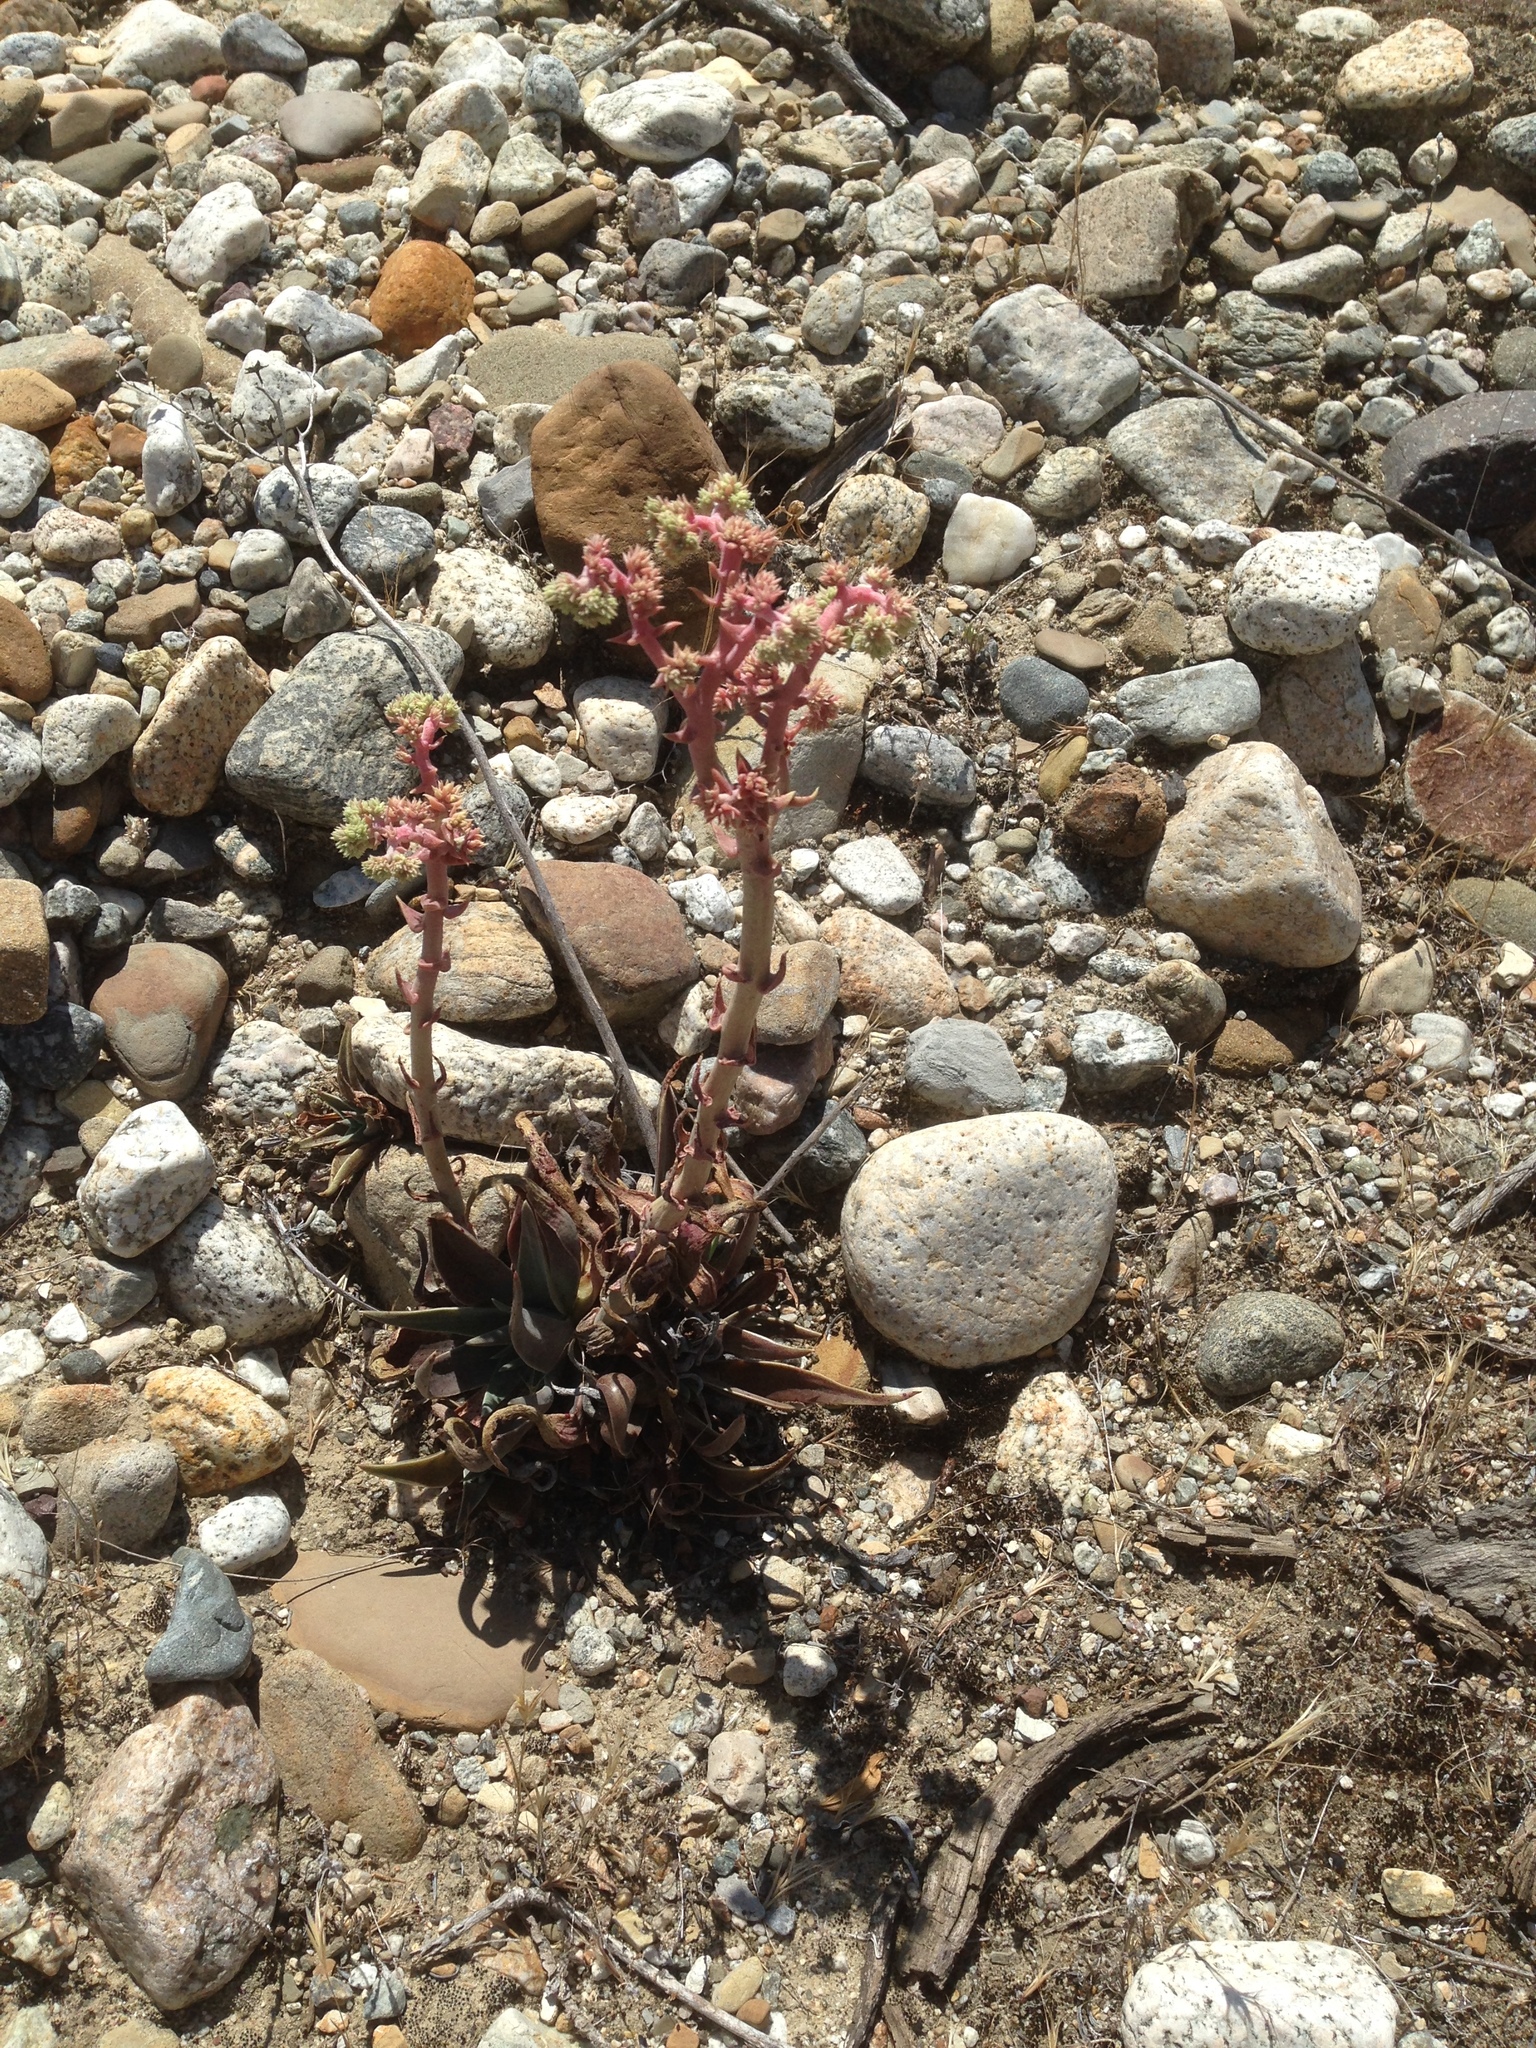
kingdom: Plantae
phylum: Tracheophyta
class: Magnoliopsida
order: Saxifragales
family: Crassulaceae
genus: Dudleya
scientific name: Dudleya lanceolata
